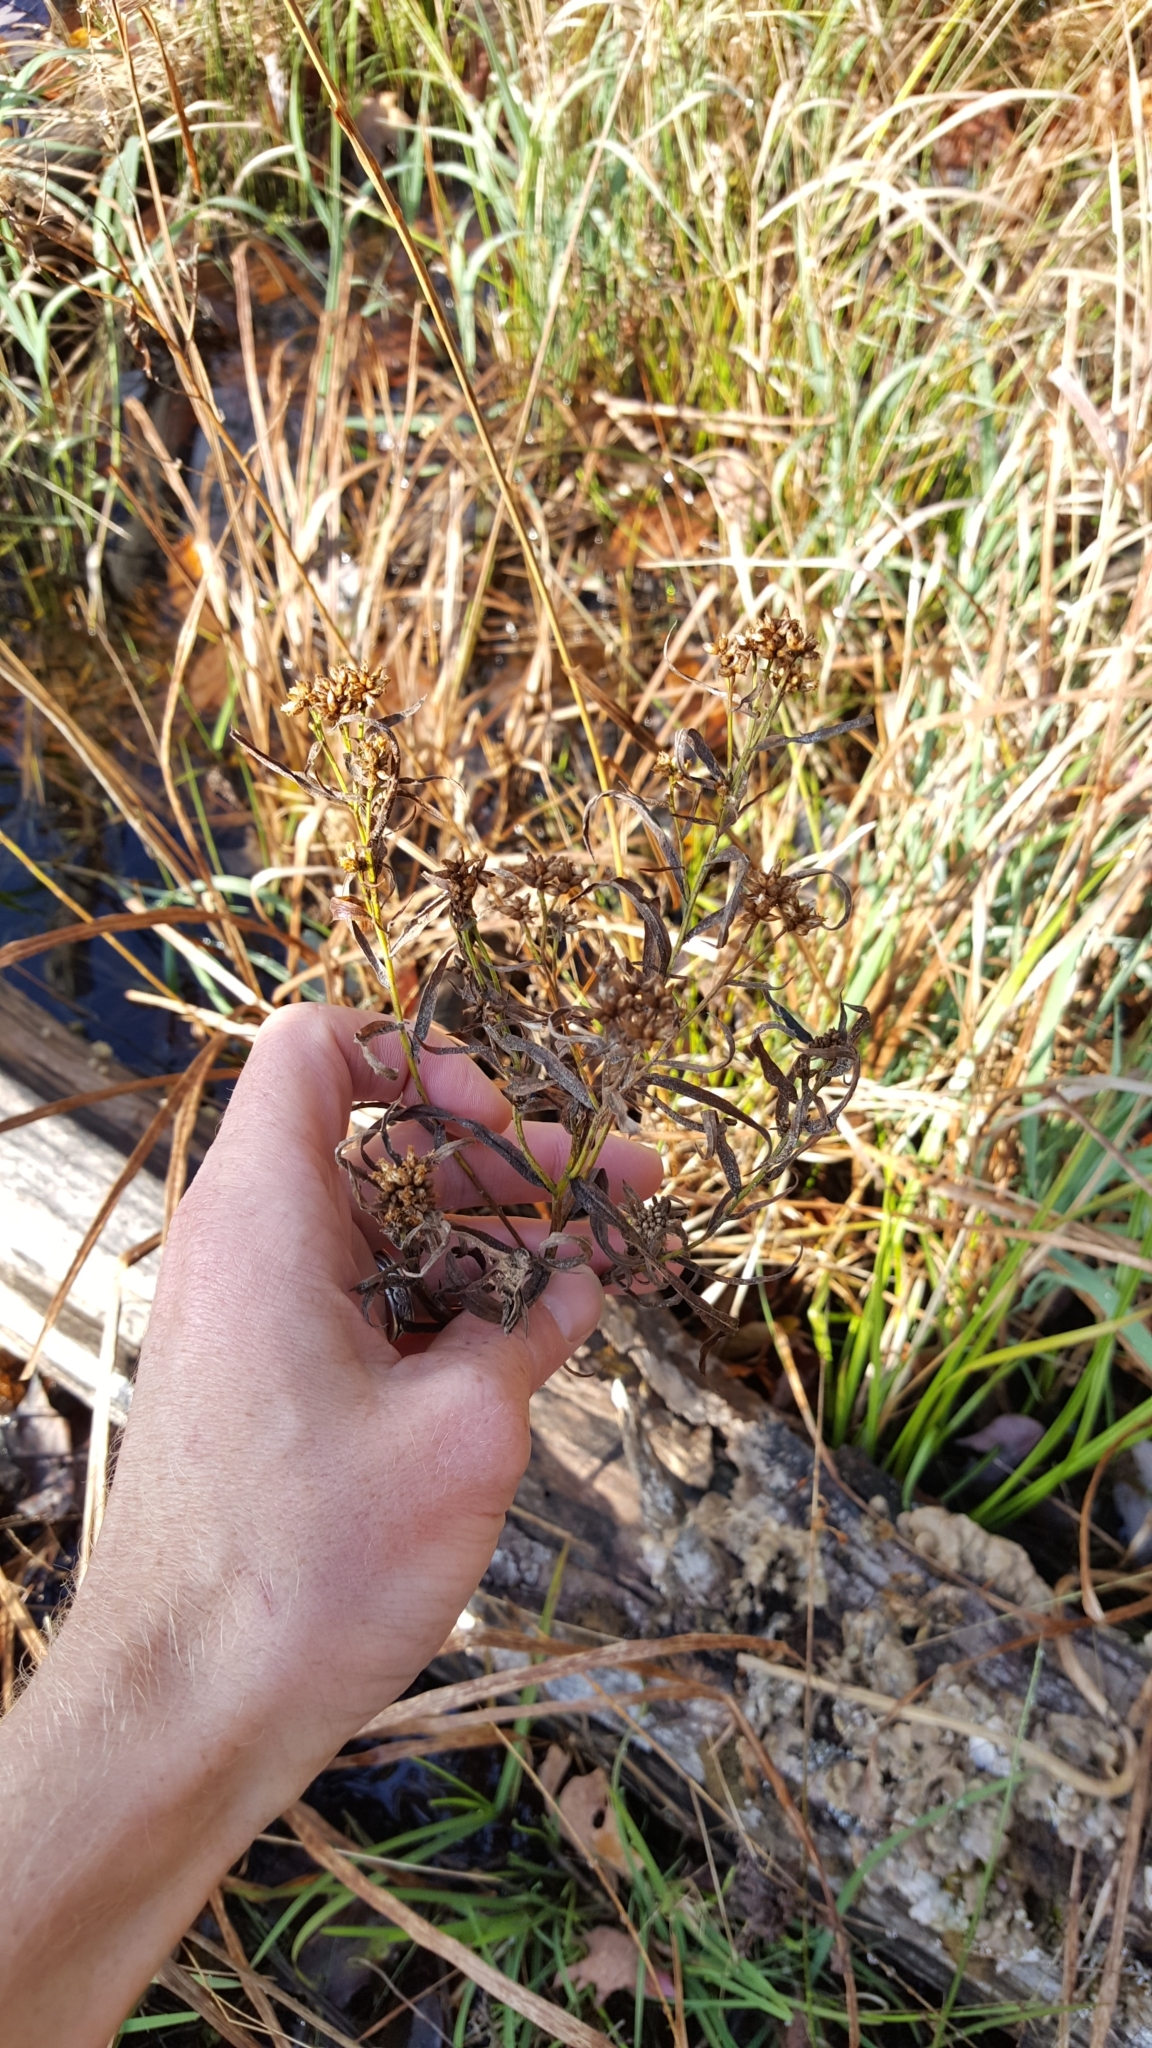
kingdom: Plantae
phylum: Tracheophyta
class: Magnoliopsida
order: Asterales
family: Asteraceae
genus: Euthamia
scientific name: Euthamia graminifolia
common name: Common goldentop
